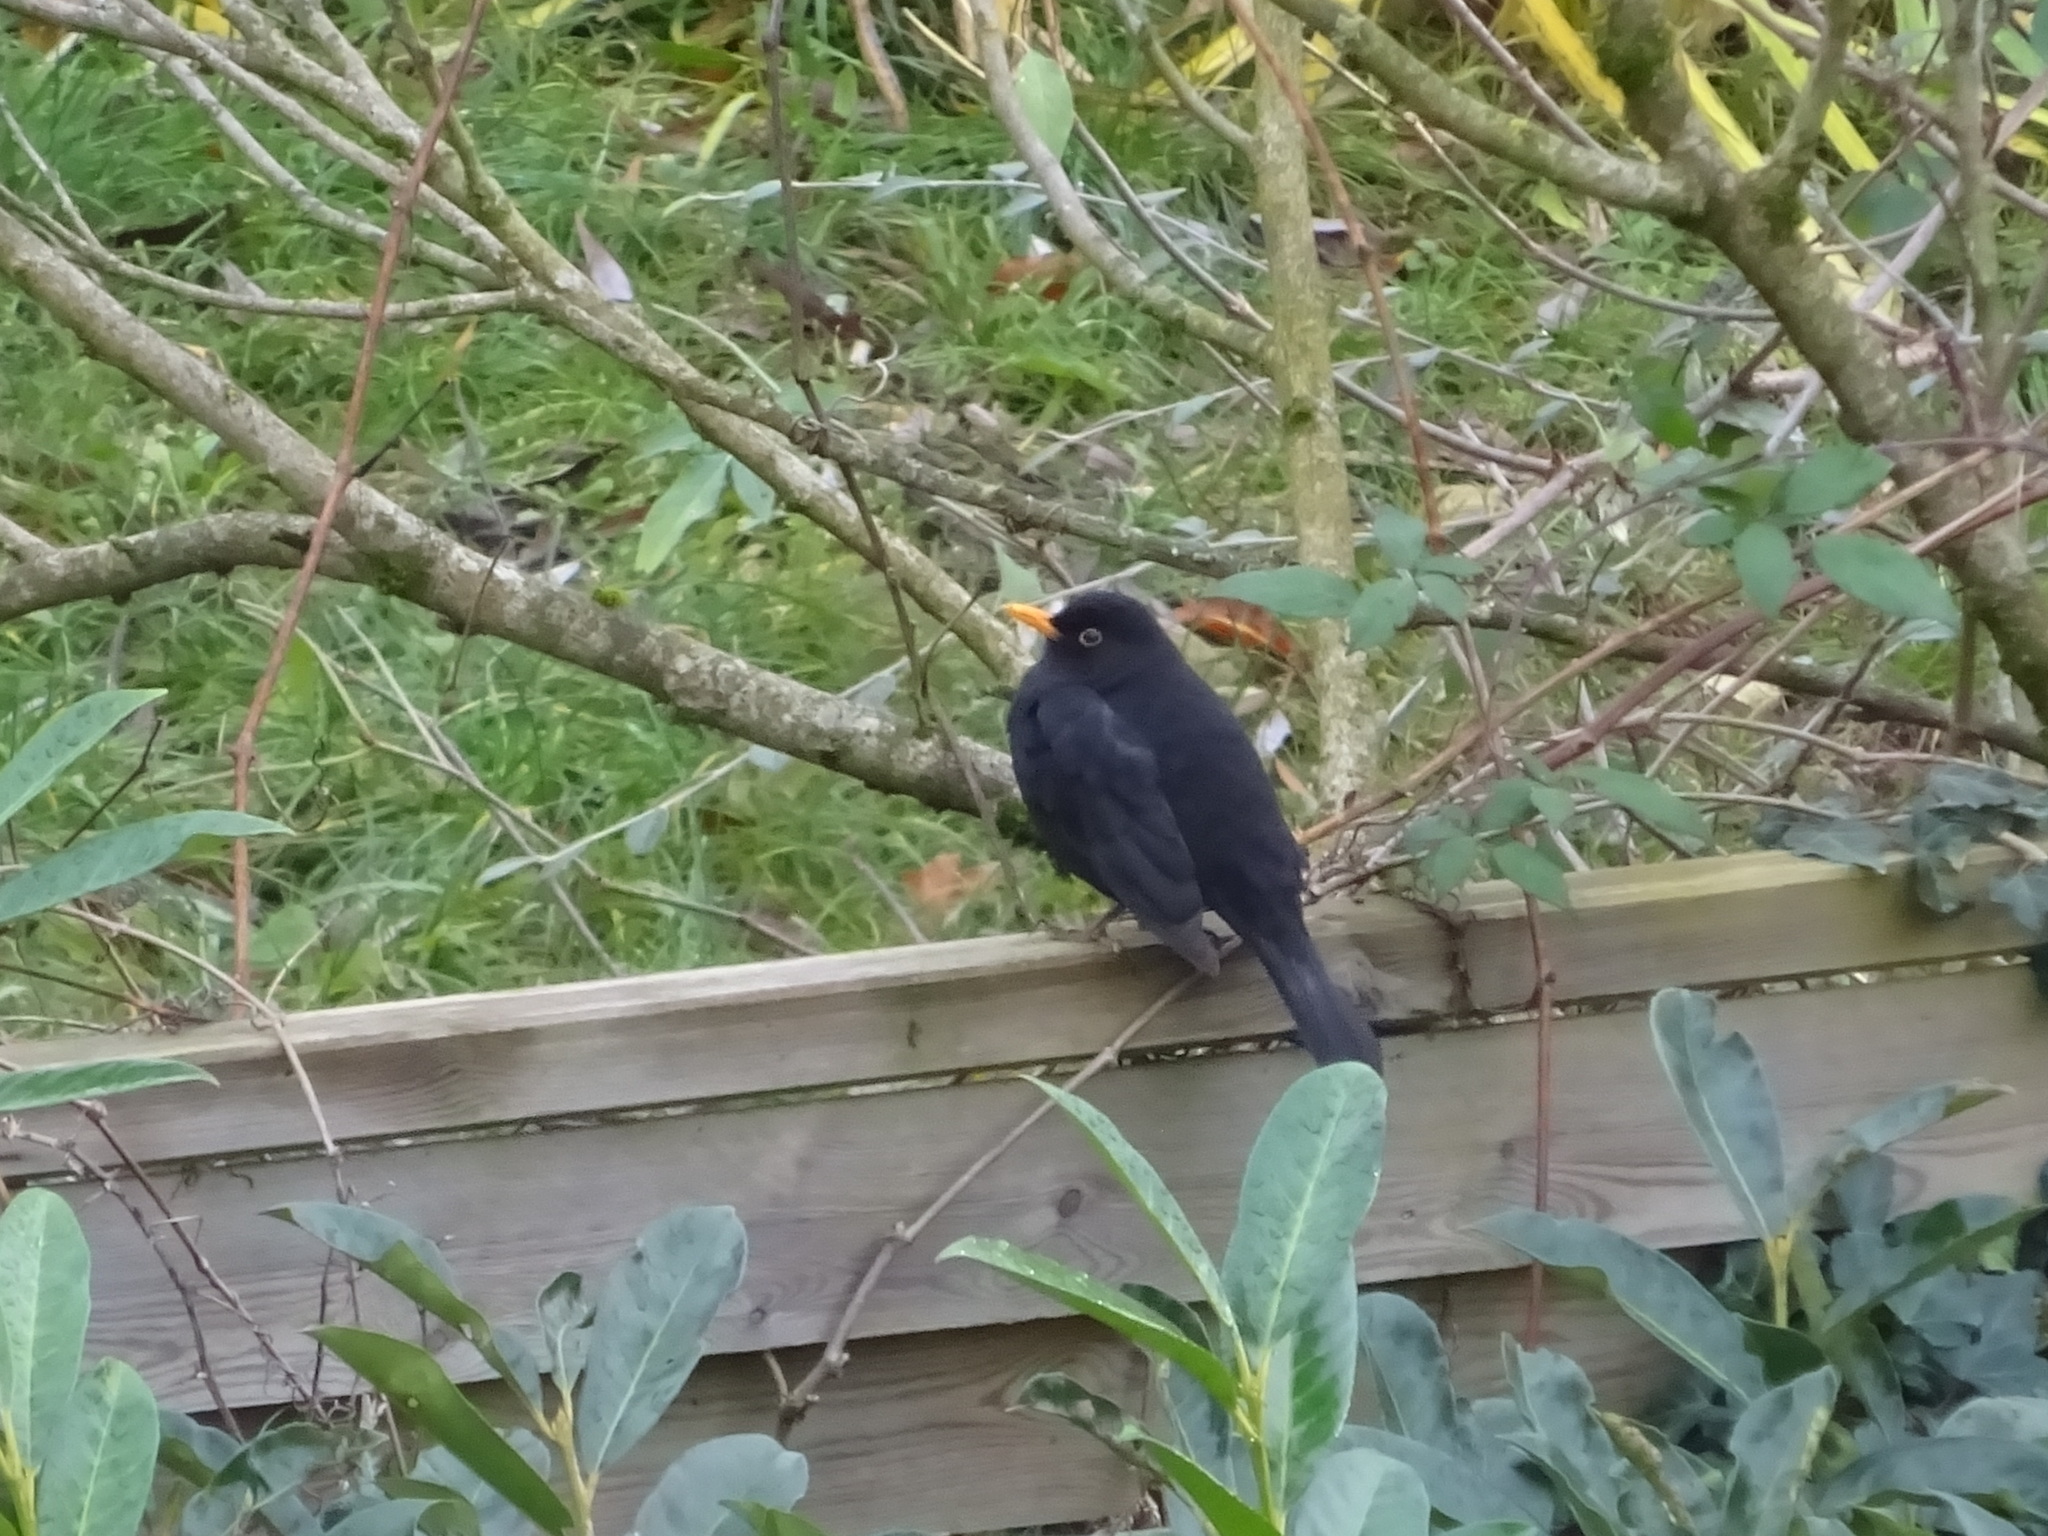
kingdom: Animalia
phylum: Chordata
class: Aves
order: Passeriformes
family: Turdidae
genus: Turdus
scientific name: Turdus merula
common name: Common blackbird
